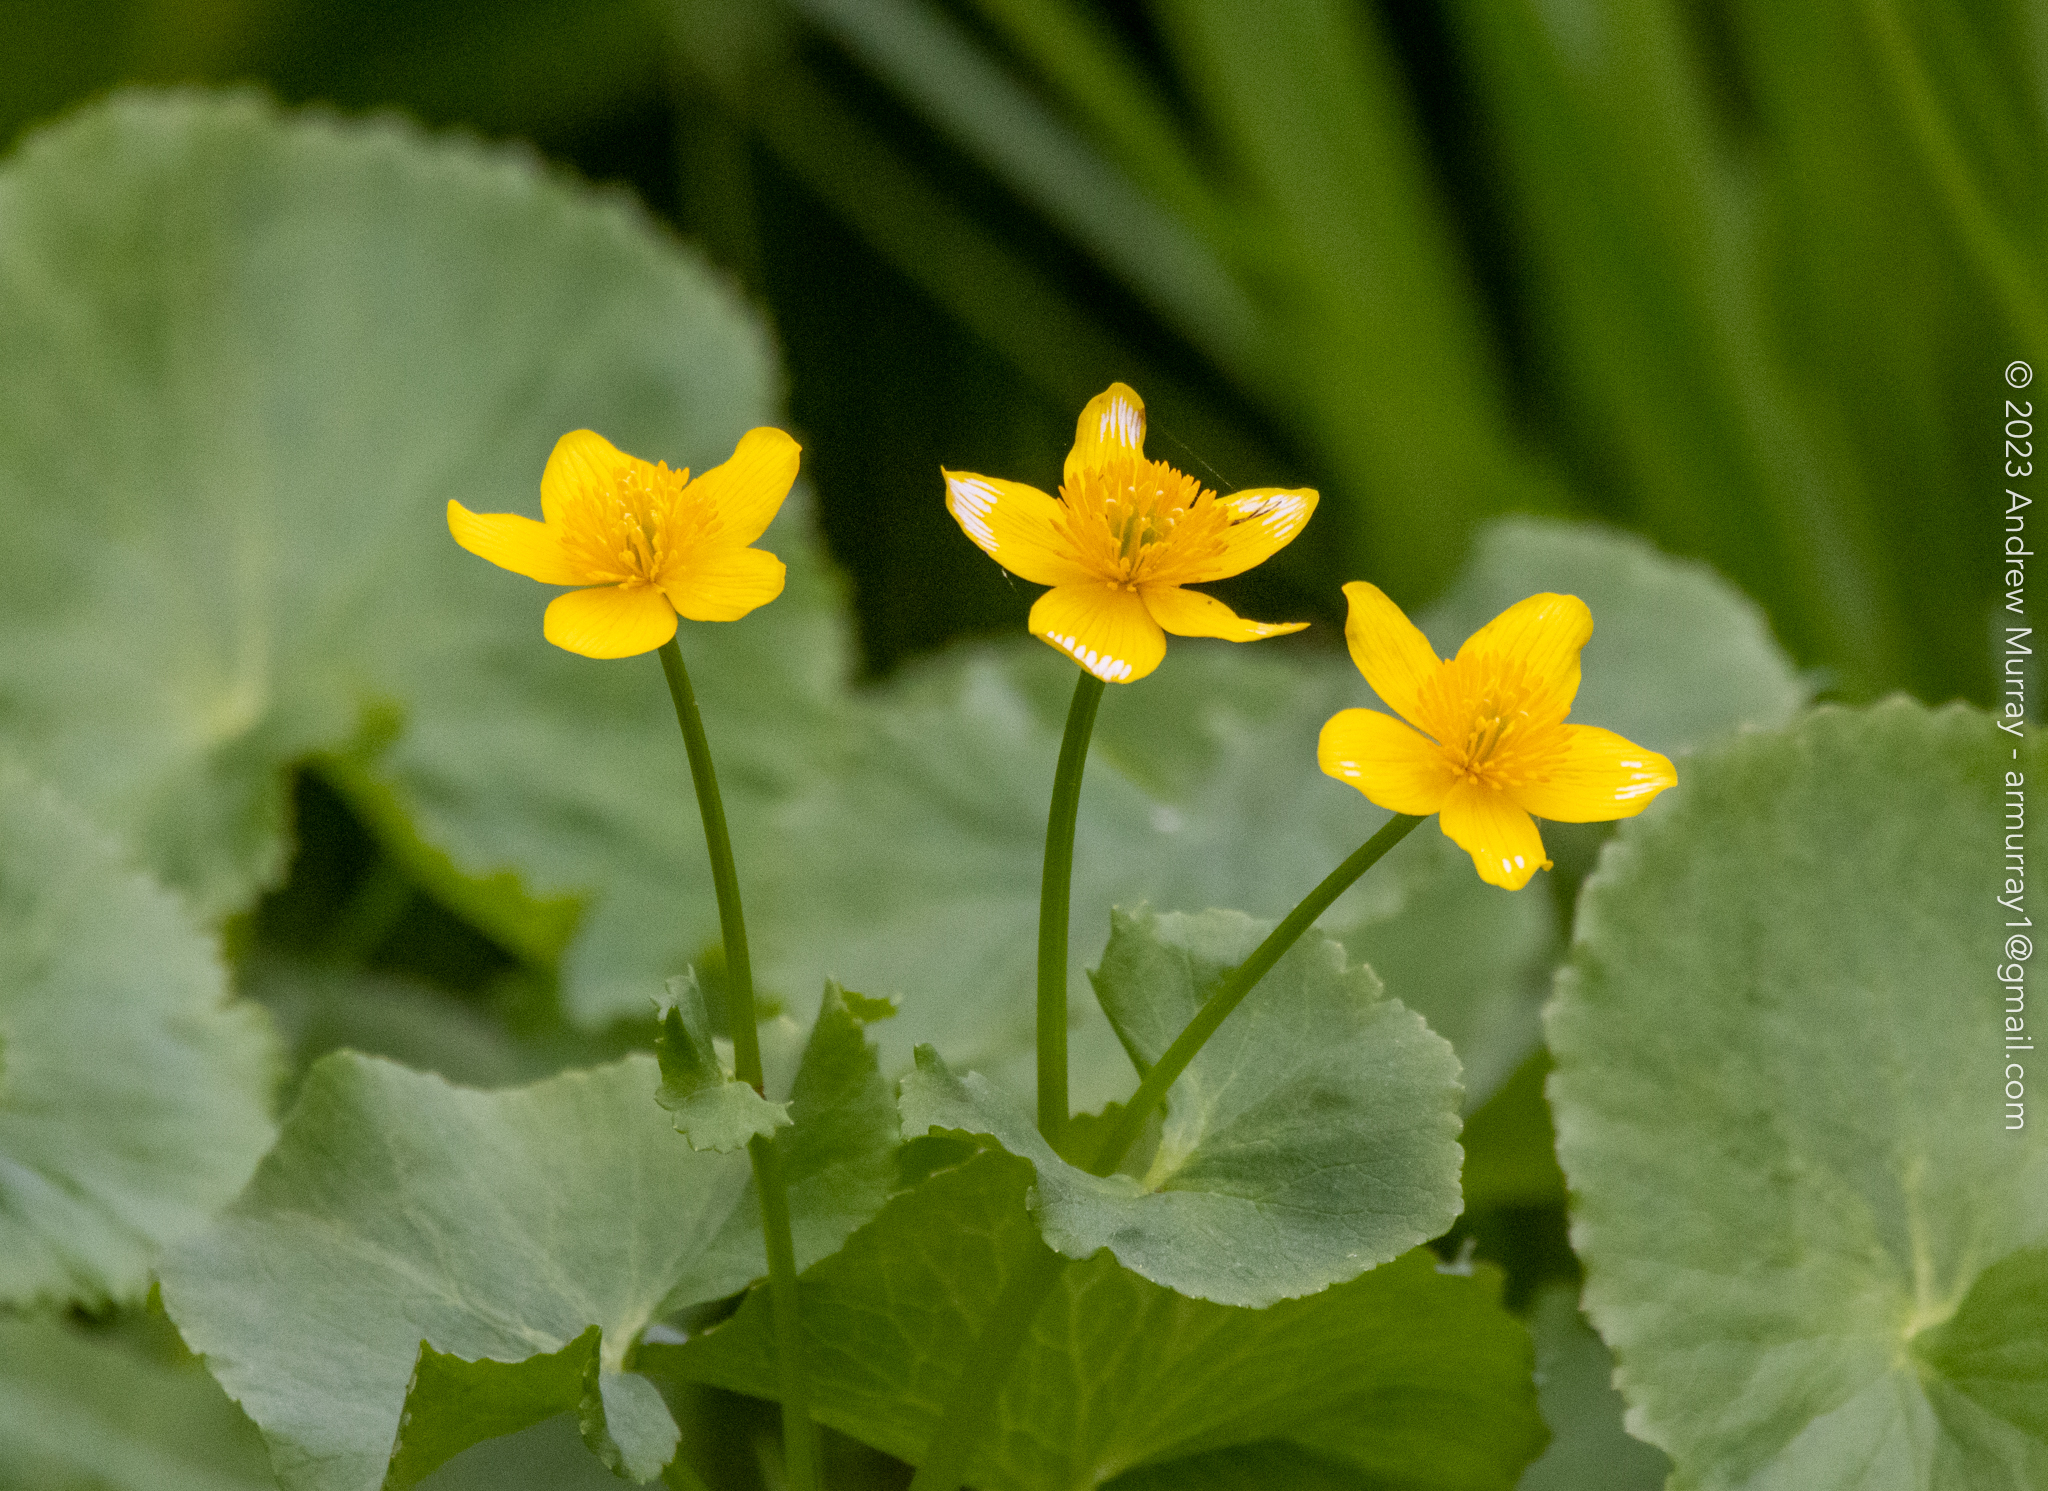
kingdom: Plantae
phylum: Tracheophyta
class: Magnoliopsida
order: Ranunculales
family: Ranunculaceae
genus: Caltha
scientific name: Caltha palustris
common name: Marsh marigold
